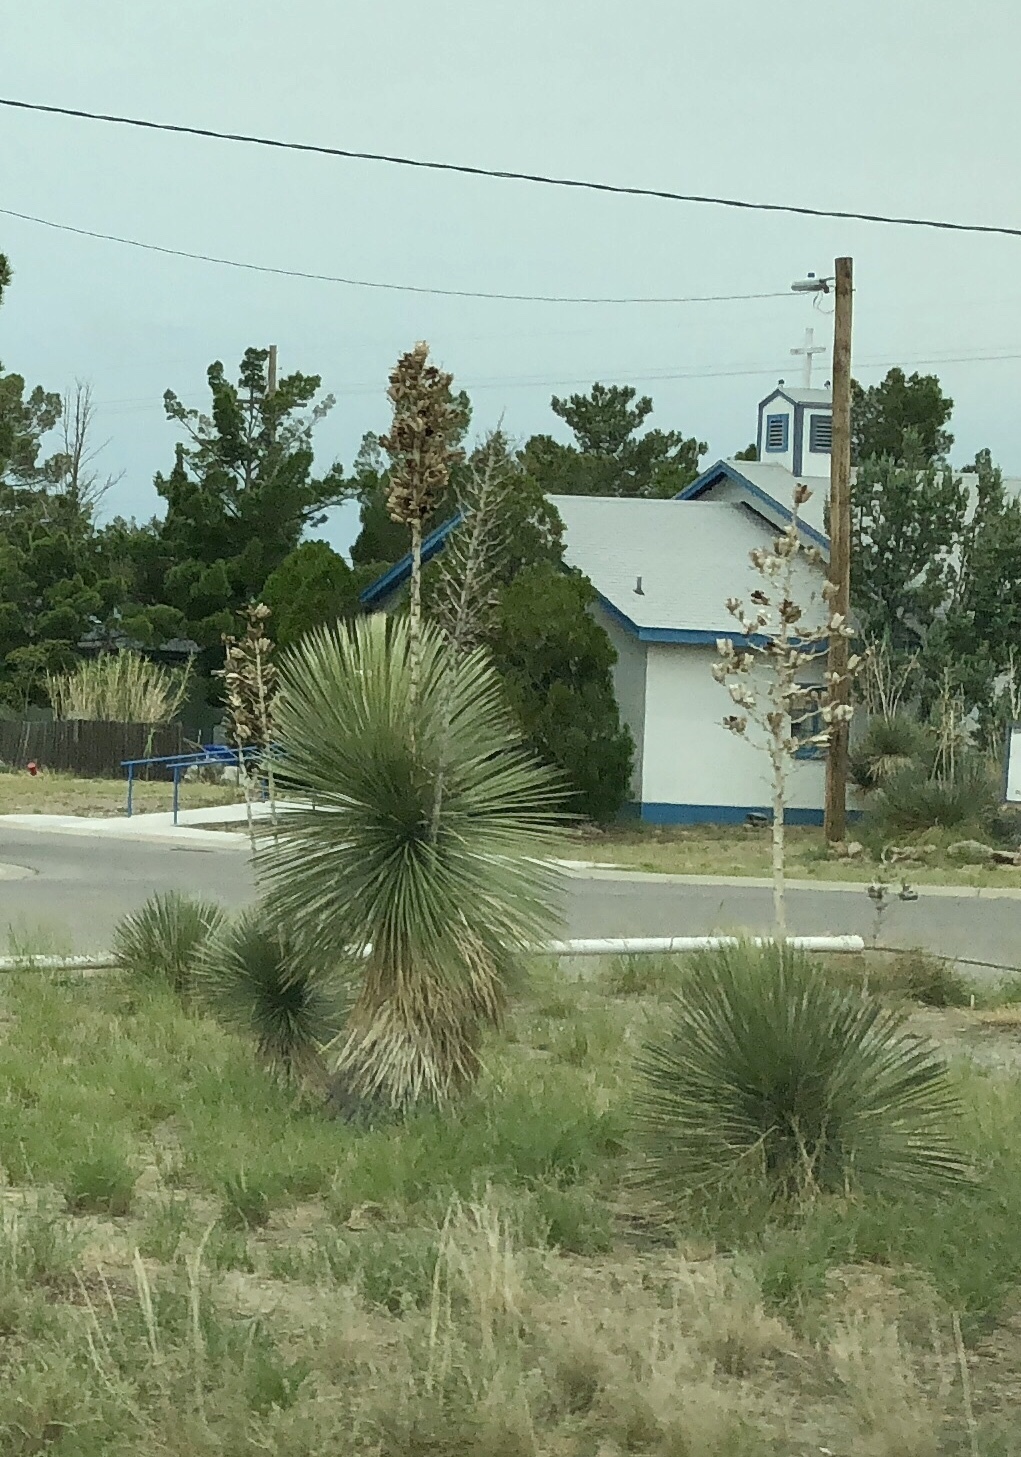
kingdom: Plantae
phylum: Tracheophyta
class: Liliopsida
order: Asparagales
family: Asparagaceae
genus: Yucca
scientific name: Yucca elata
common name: Palmella
